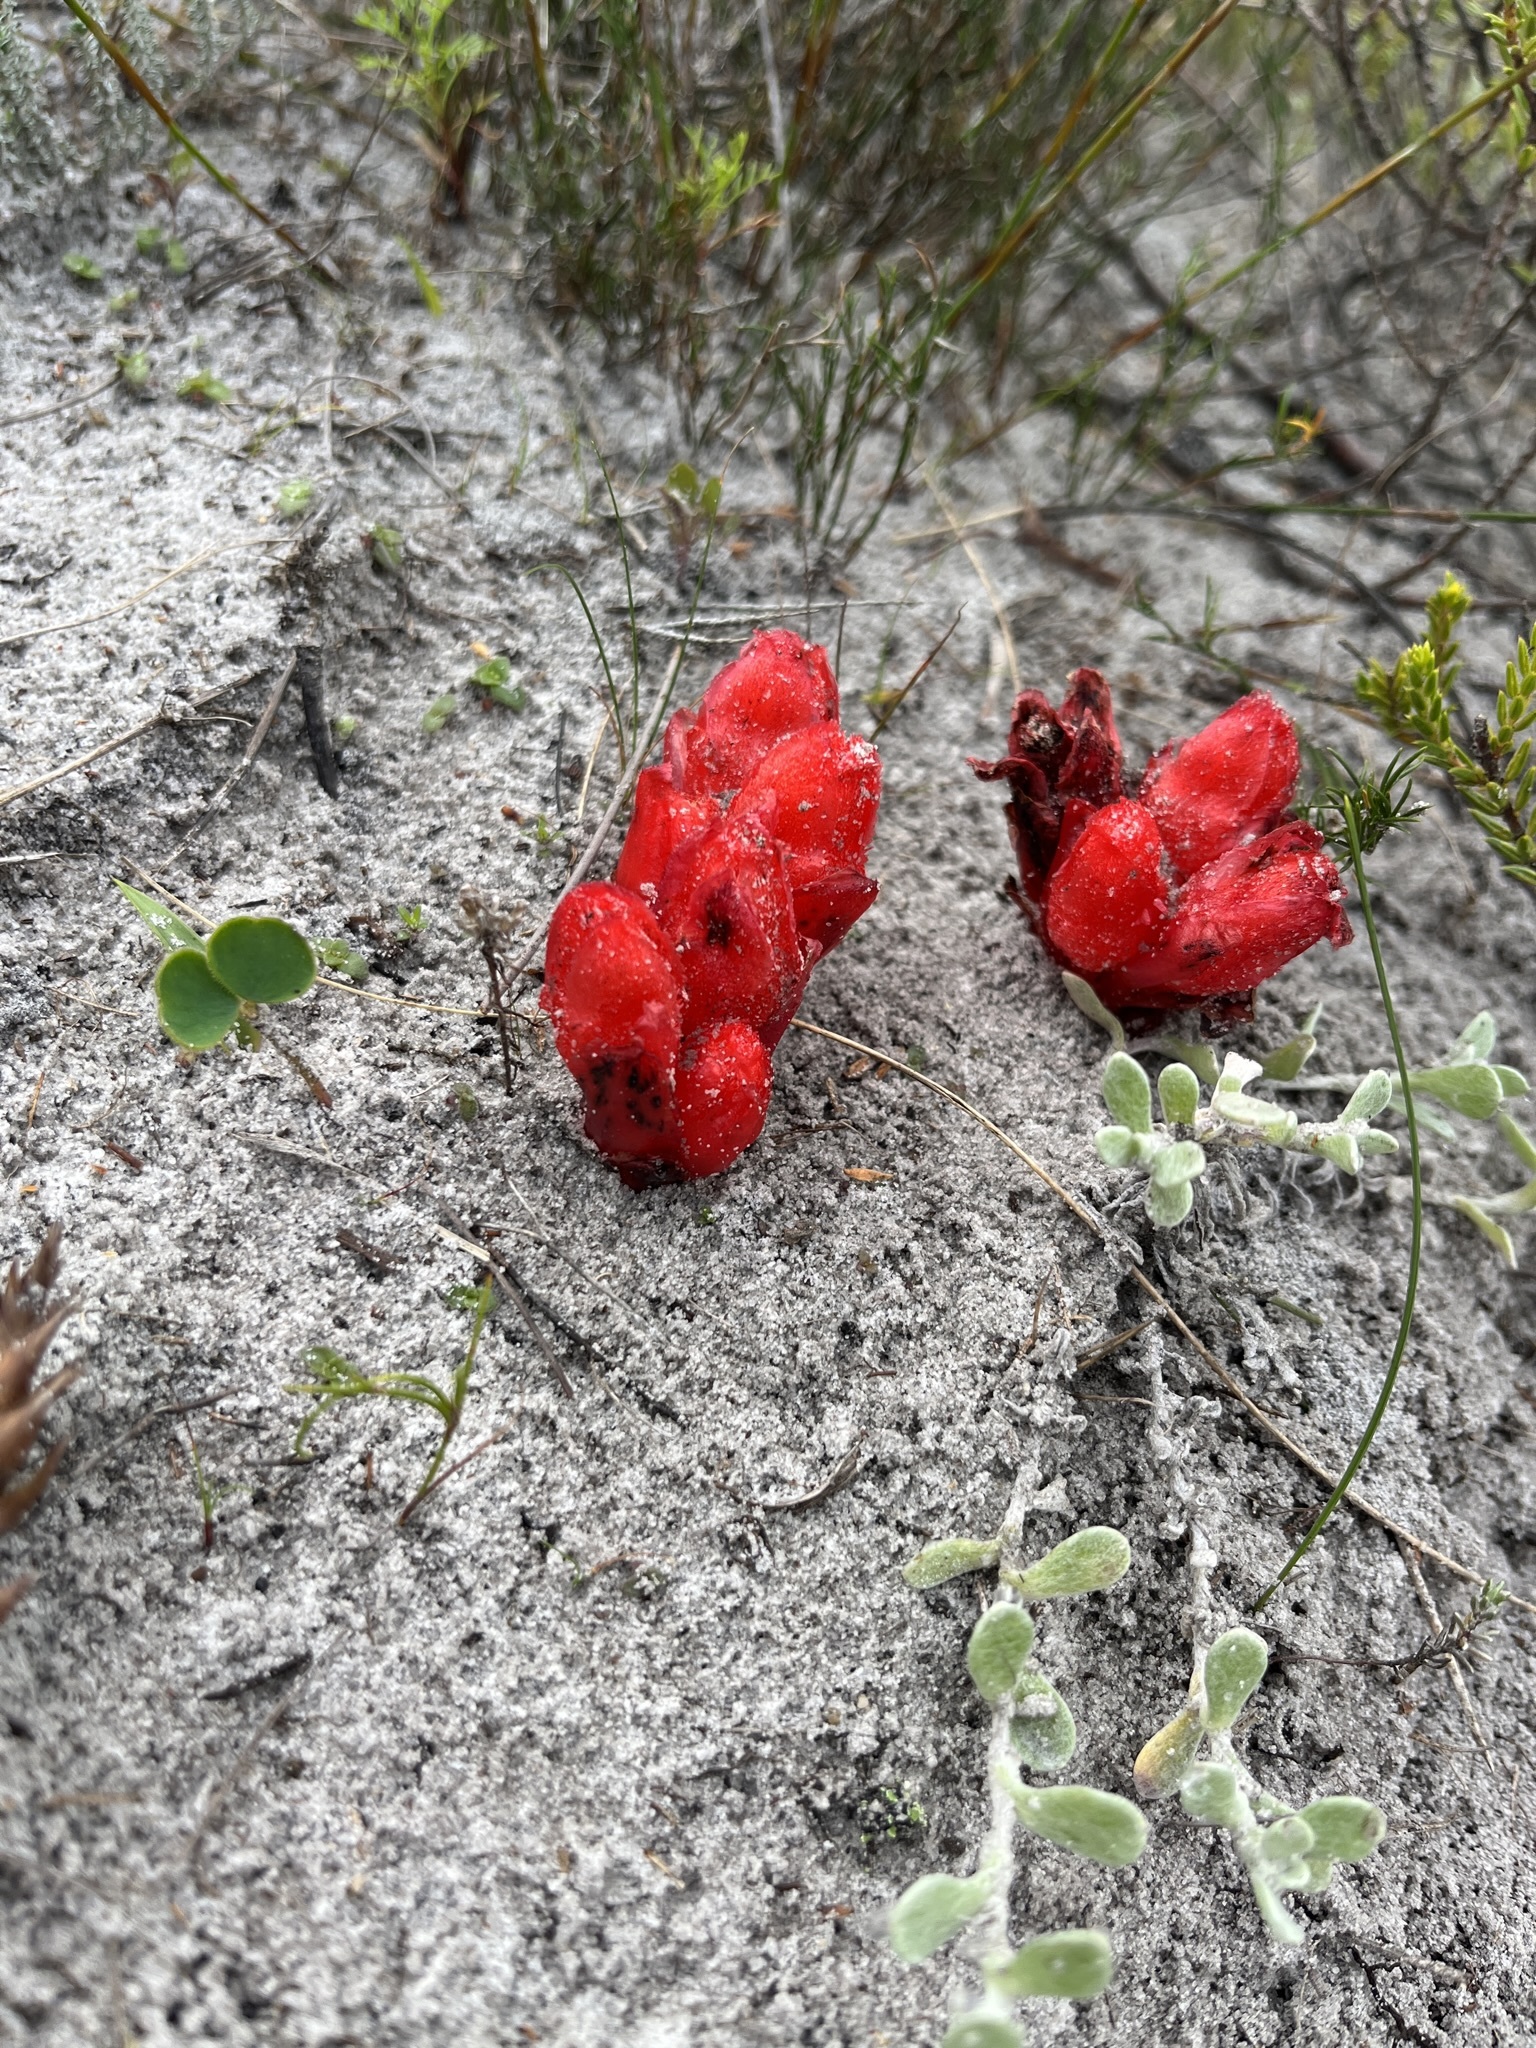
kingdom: Plantae
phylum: Tracheophyta
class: Magnoliopsida
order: Lamiales
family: Orobanchaceae
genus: Hyobanche
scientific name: Hyobanche sanguinea
